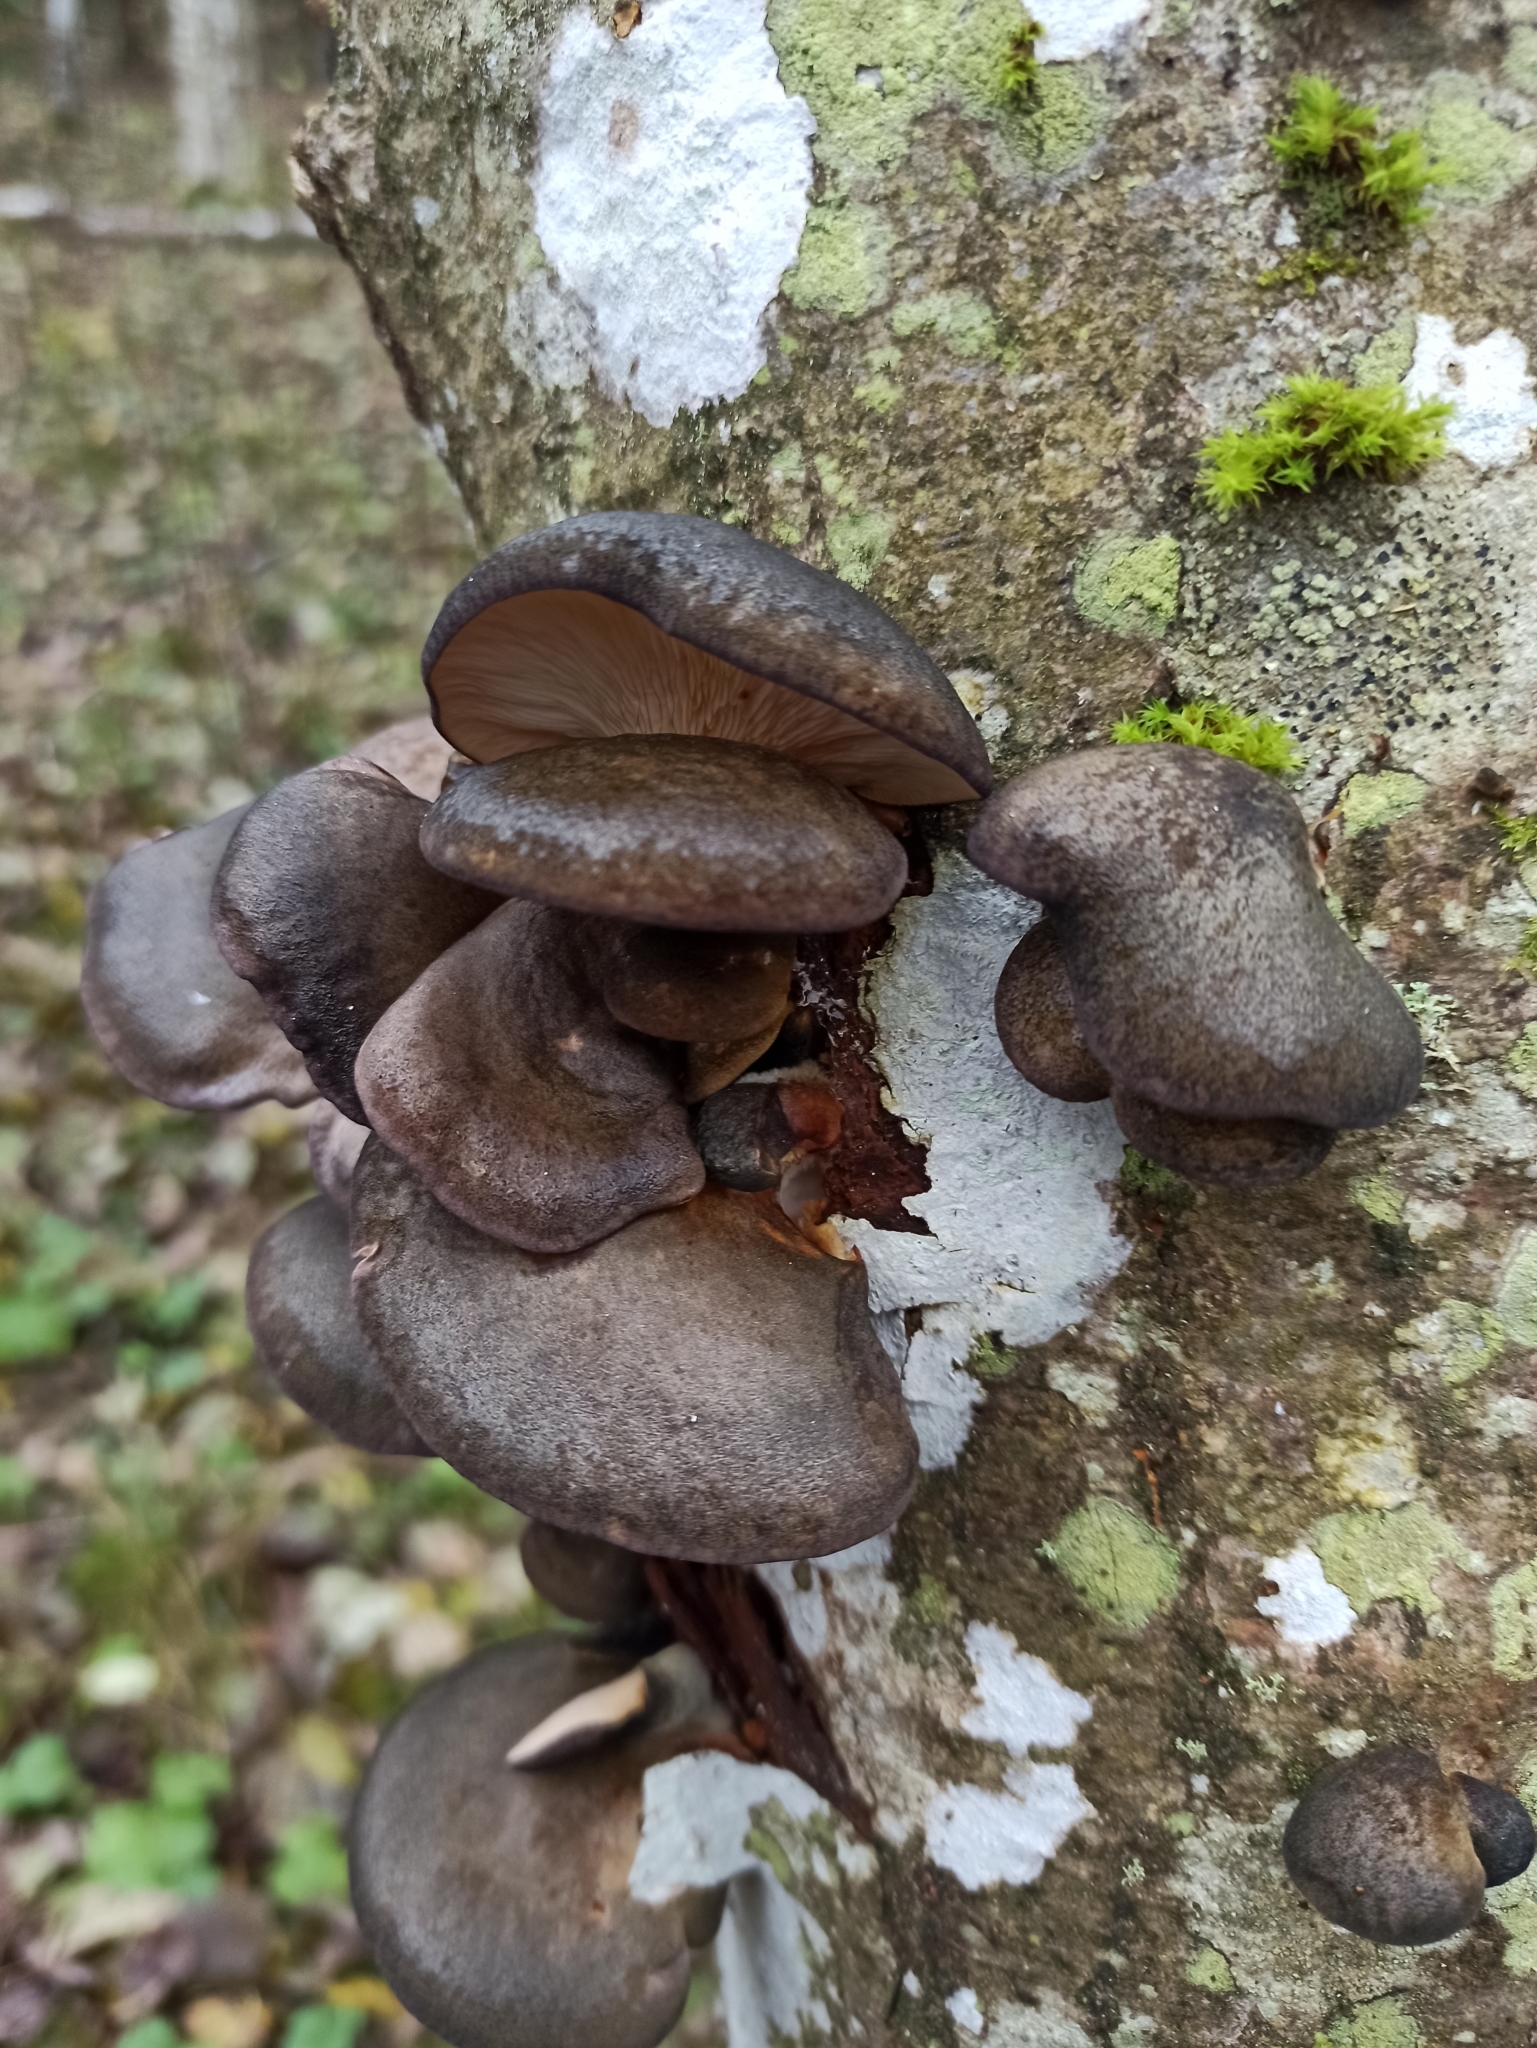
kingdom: Fungi
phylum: Basidiomycota
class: Agaricomycetes
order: Agaricales
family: Sarcomyxaceae
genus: Sarcomyxa
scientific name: Sarcomyxa serotina
